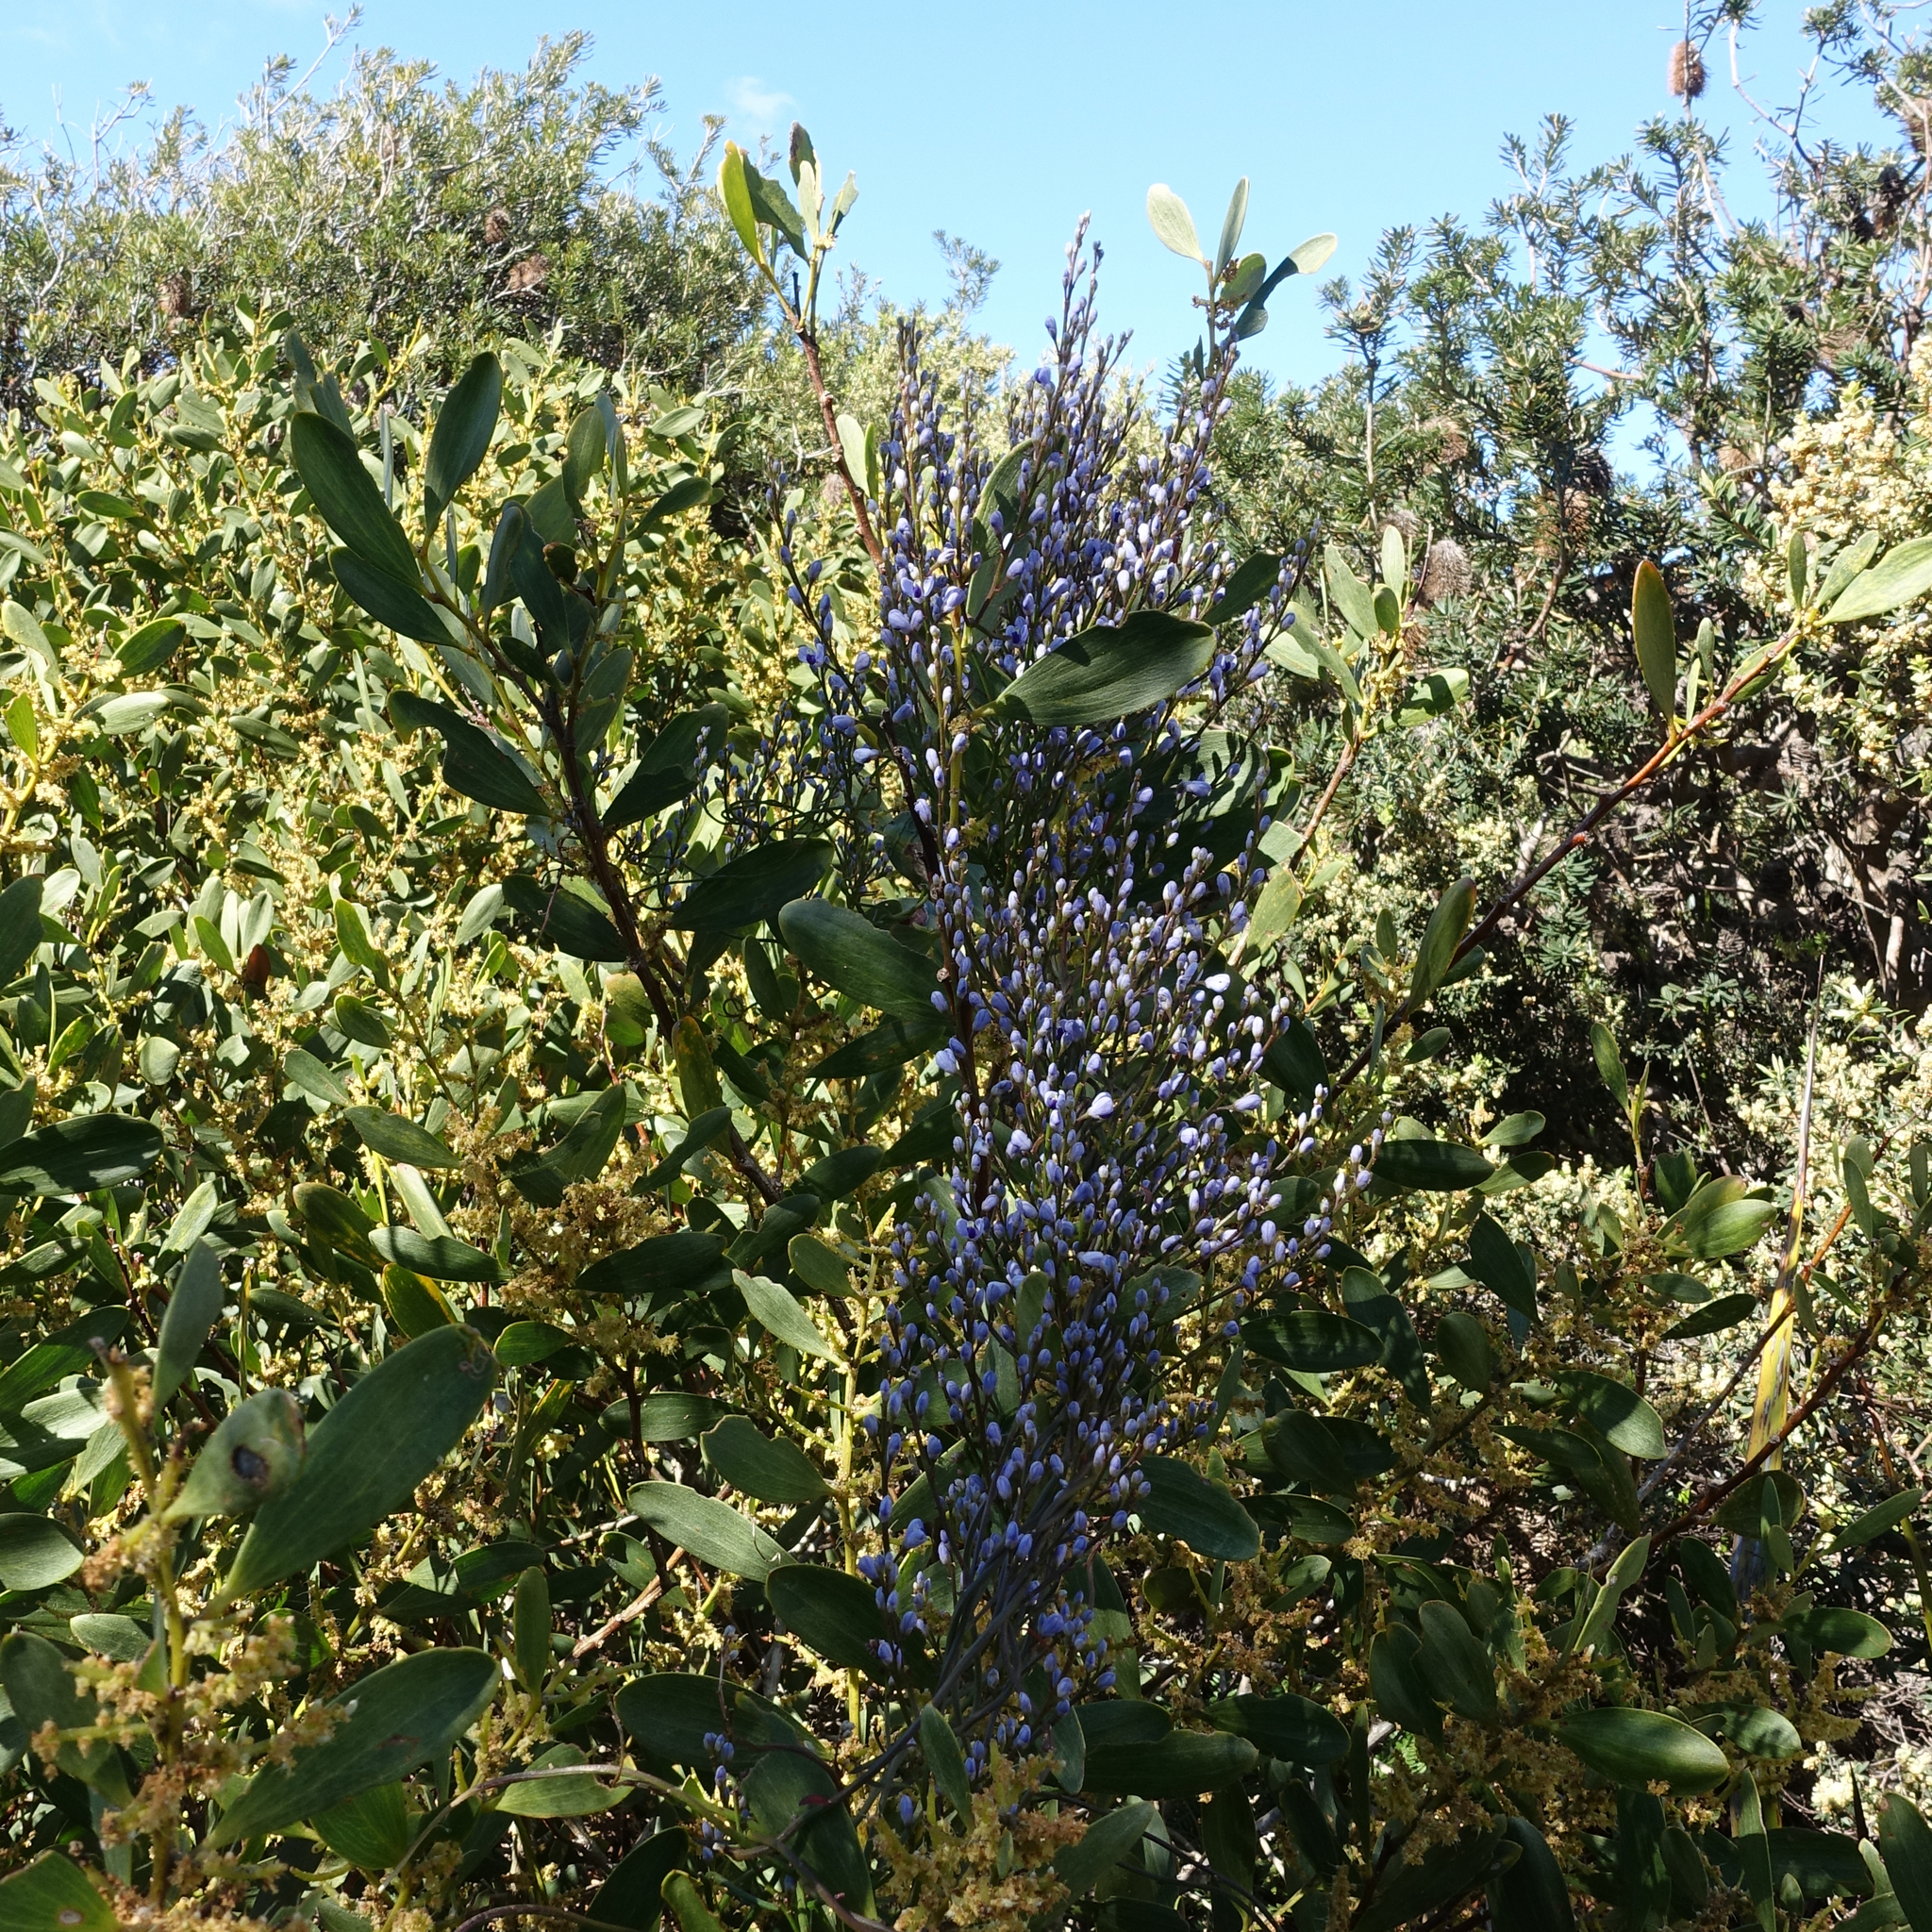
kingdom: Plantae
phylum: Tracheophyta
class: Magnoliopsida
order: Fabales
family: Polygalaceae
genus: Comesperma
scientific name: Comesperma volubile
